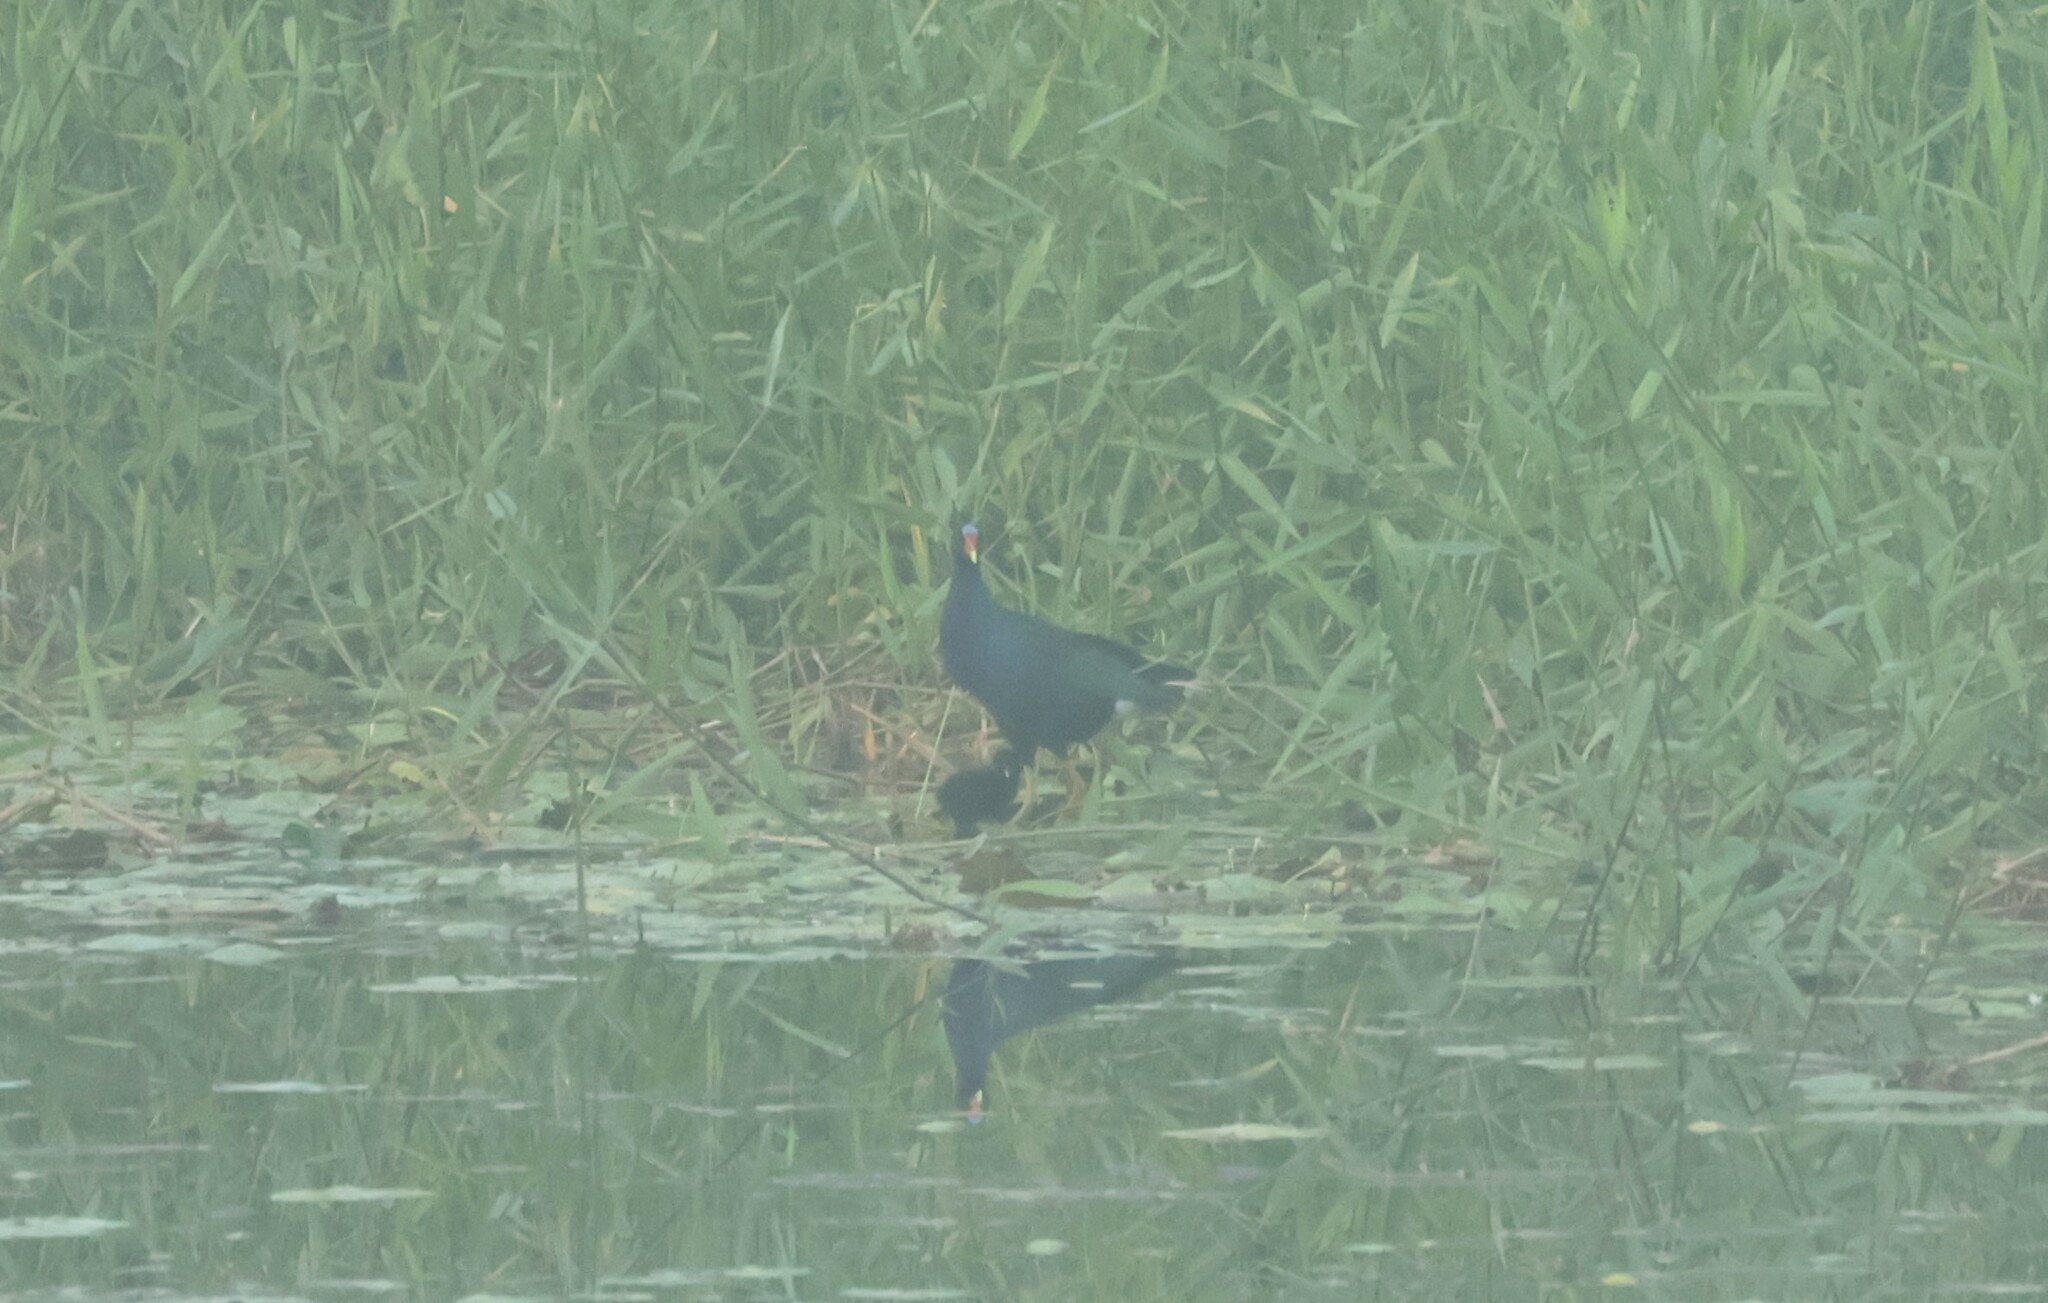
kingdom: Animalia
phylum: Chordata
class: Aves
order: Gruiformes
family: Rallidae
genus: Porphyrio
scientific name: Porphyrio martinica
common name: Purple gallinule
